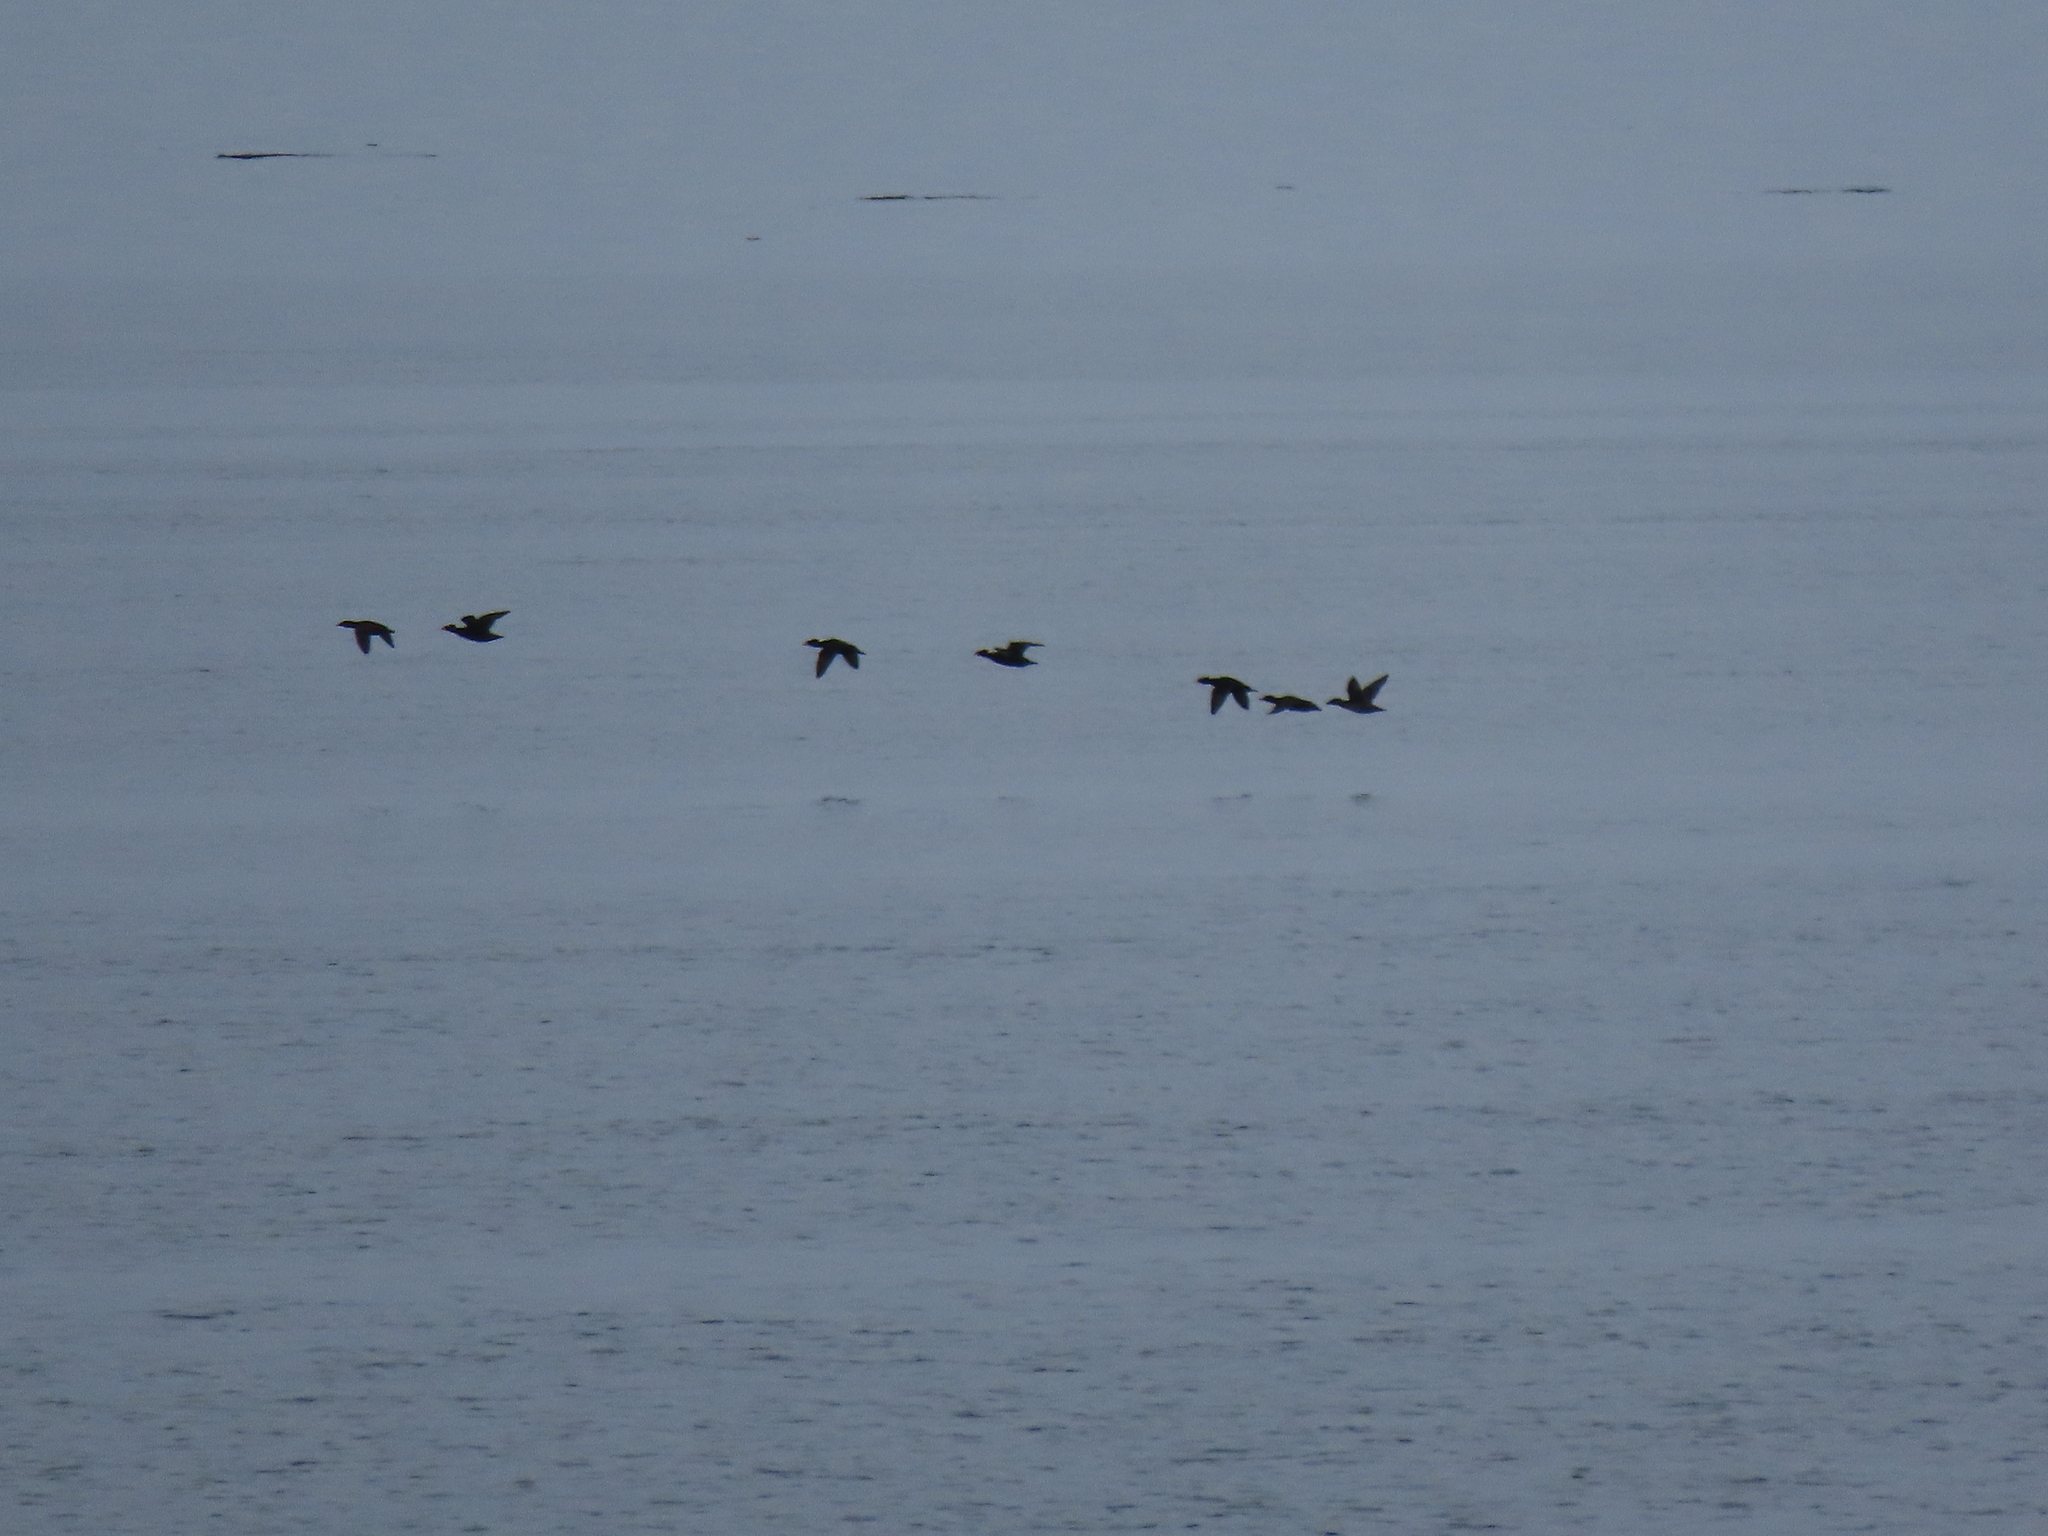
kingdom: Animalia
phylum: Chordata
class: Aves
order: Anseriformes
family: Anatidae
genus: Melanitta
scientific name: Melanitta perspicillata
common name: Surf scoter
